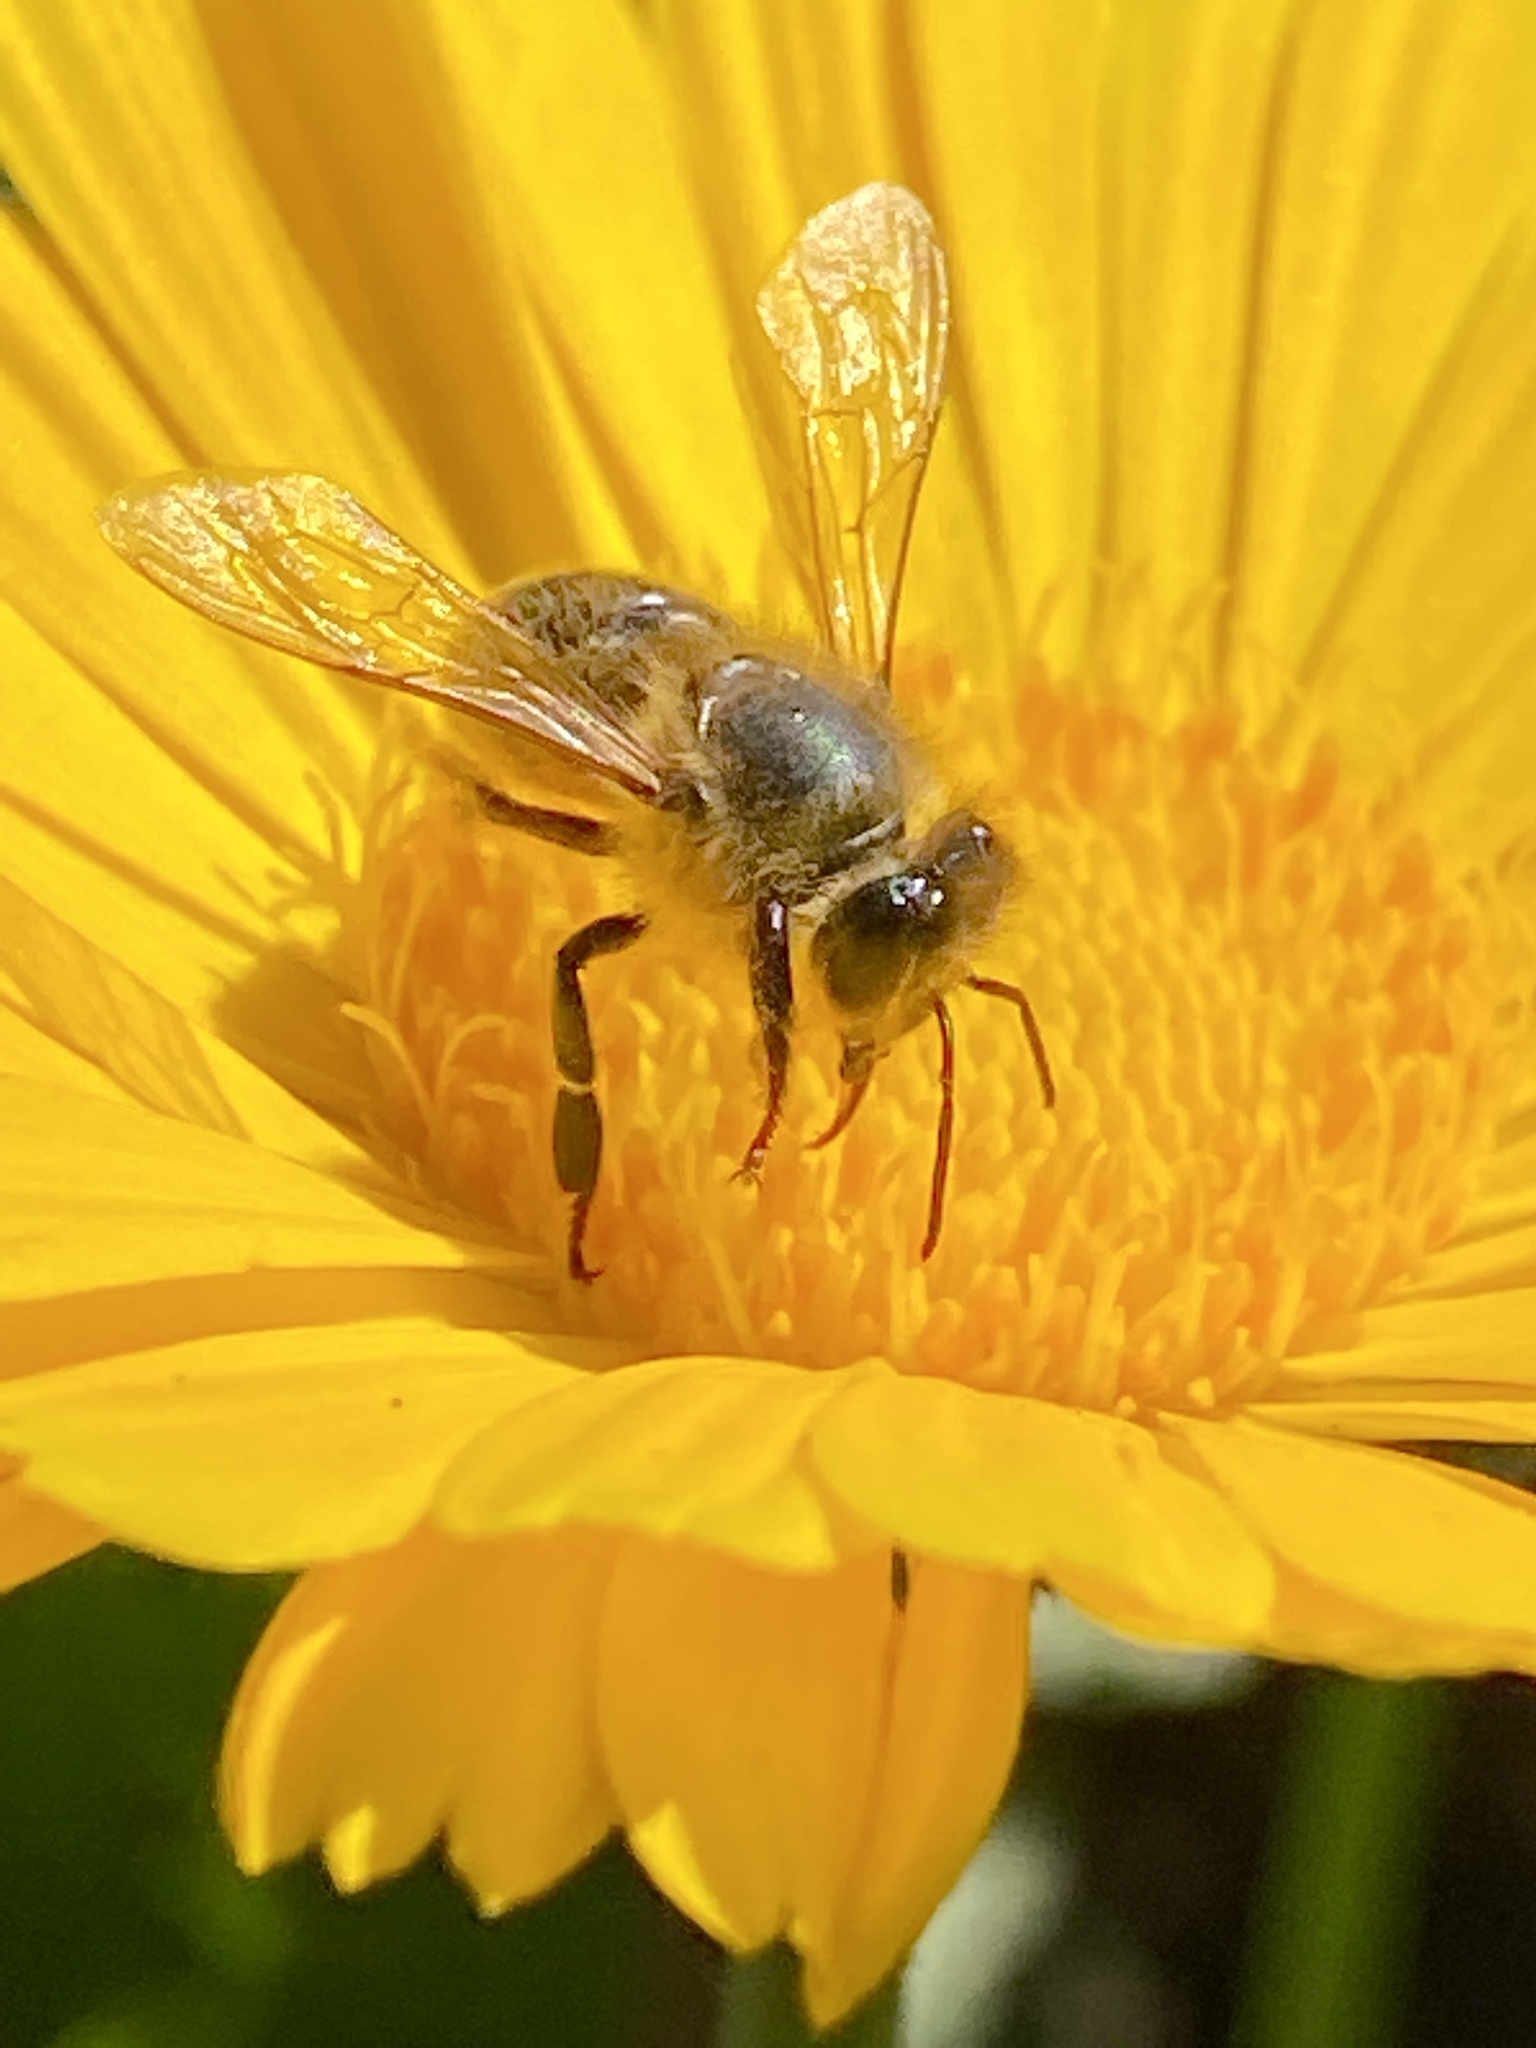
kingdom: Animalia
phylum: Arthropoda
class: Insecta
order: Hymenoptera
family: Apidae
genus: Apis
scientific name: Apis mellifera
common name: Honey bee
